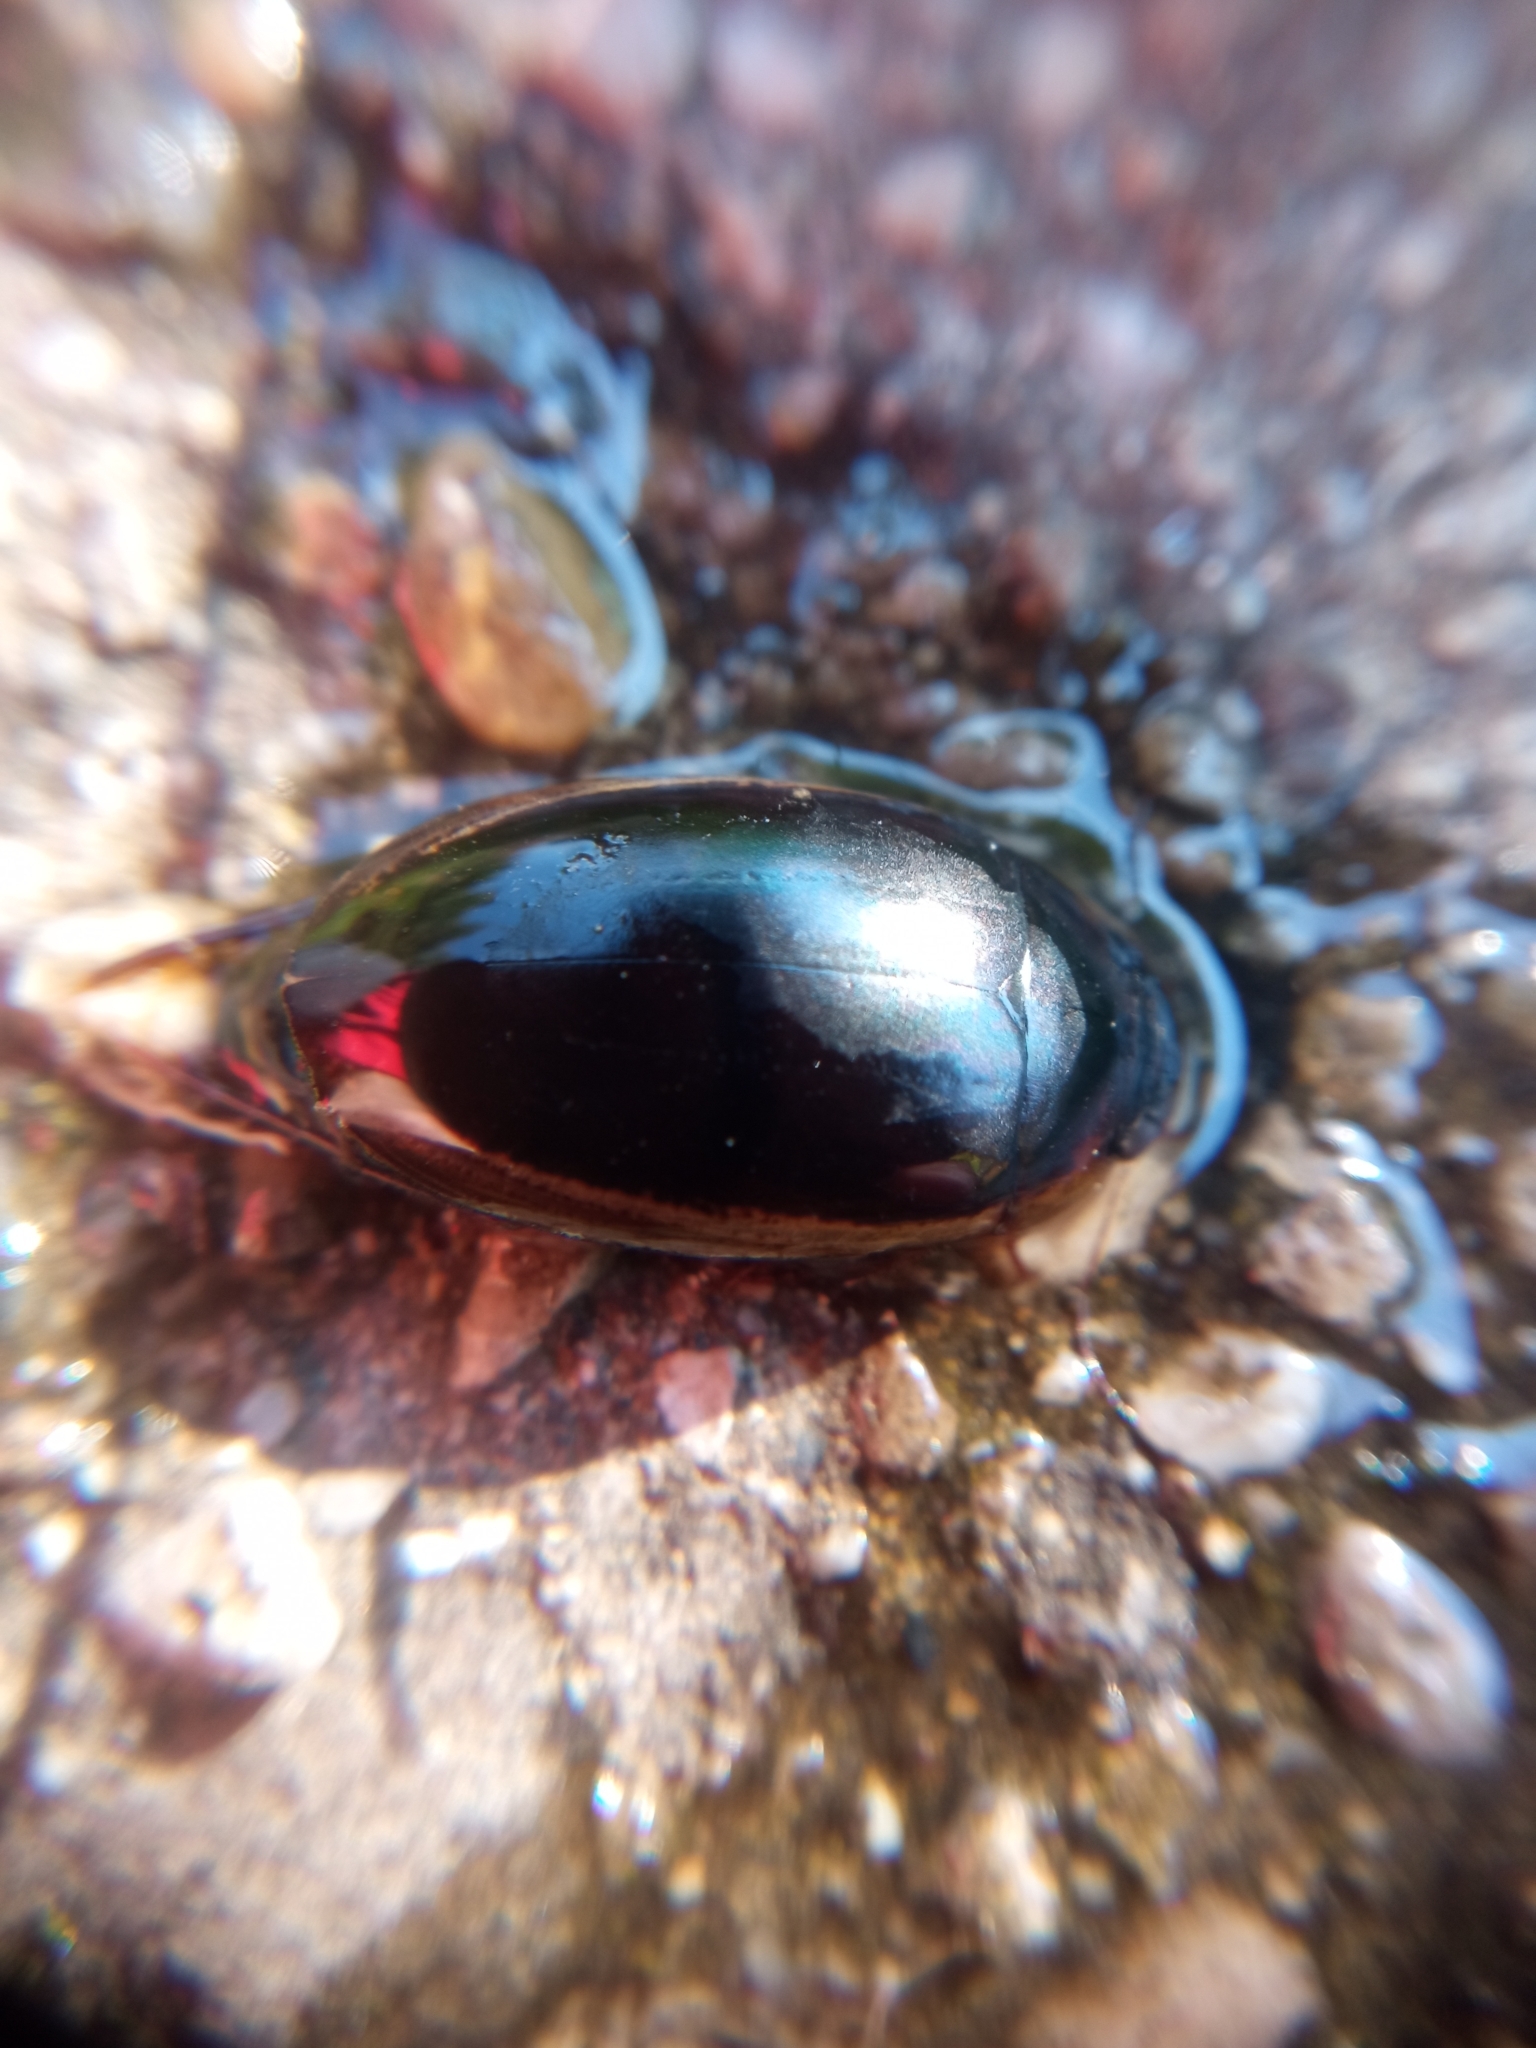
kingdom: Animalia
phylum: Arthropoda
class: Insecta
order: Coleoptera
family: Dytiscidae
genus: Hydaticus
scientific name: Hydaticus seminiger
